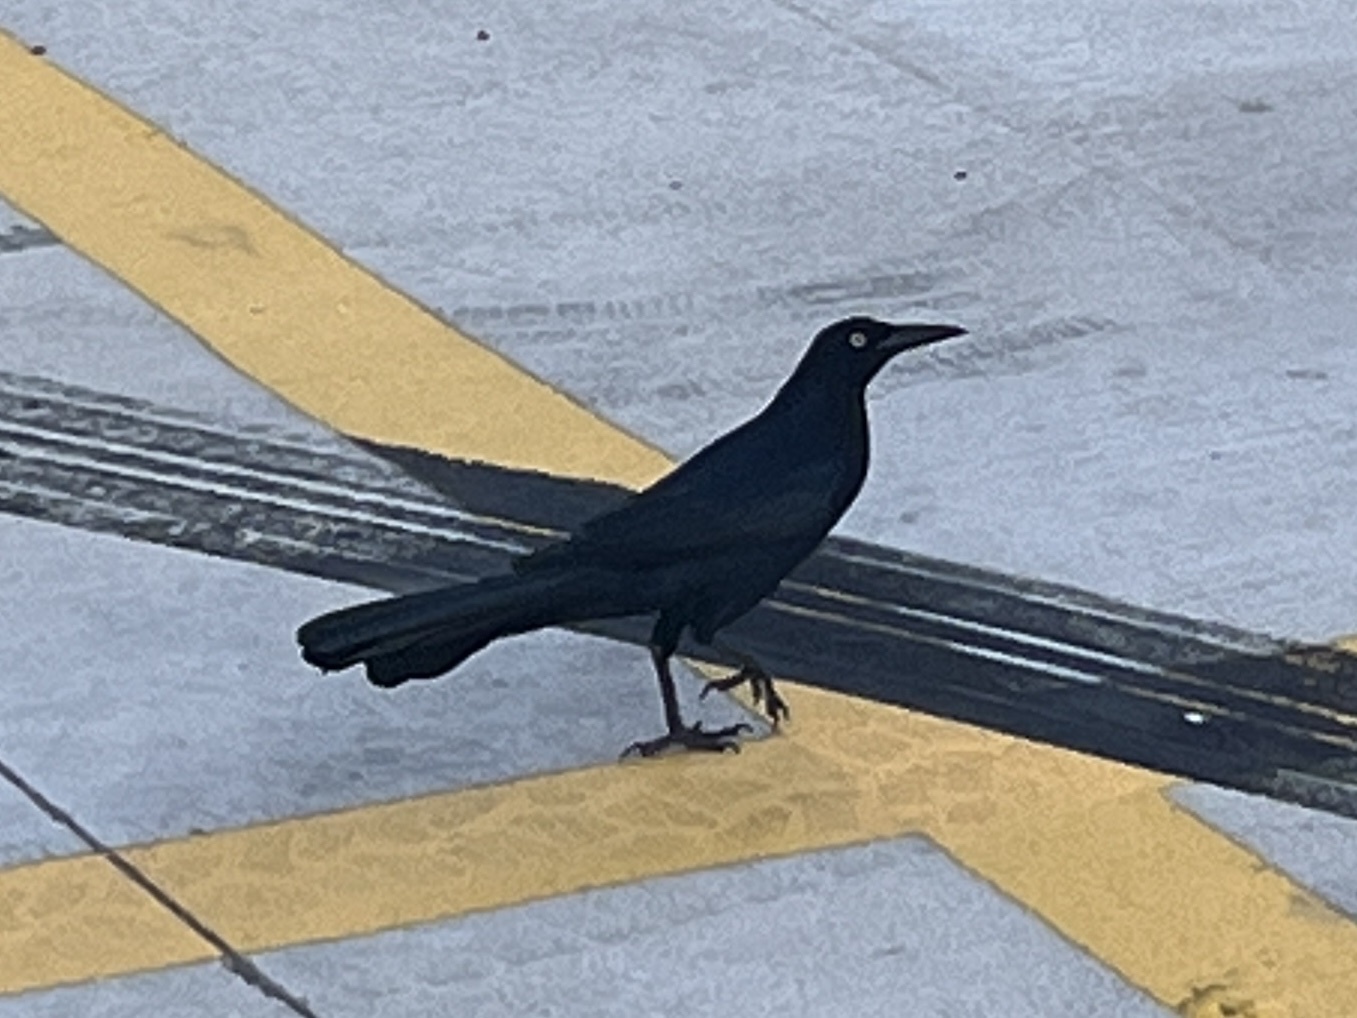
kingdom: Animalia
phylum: Chordata
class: Aves
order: Passeriformes
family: Icteridae
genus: Quiscalus
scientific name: Quiscalus mexicanus
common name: Great-tailed grackle
